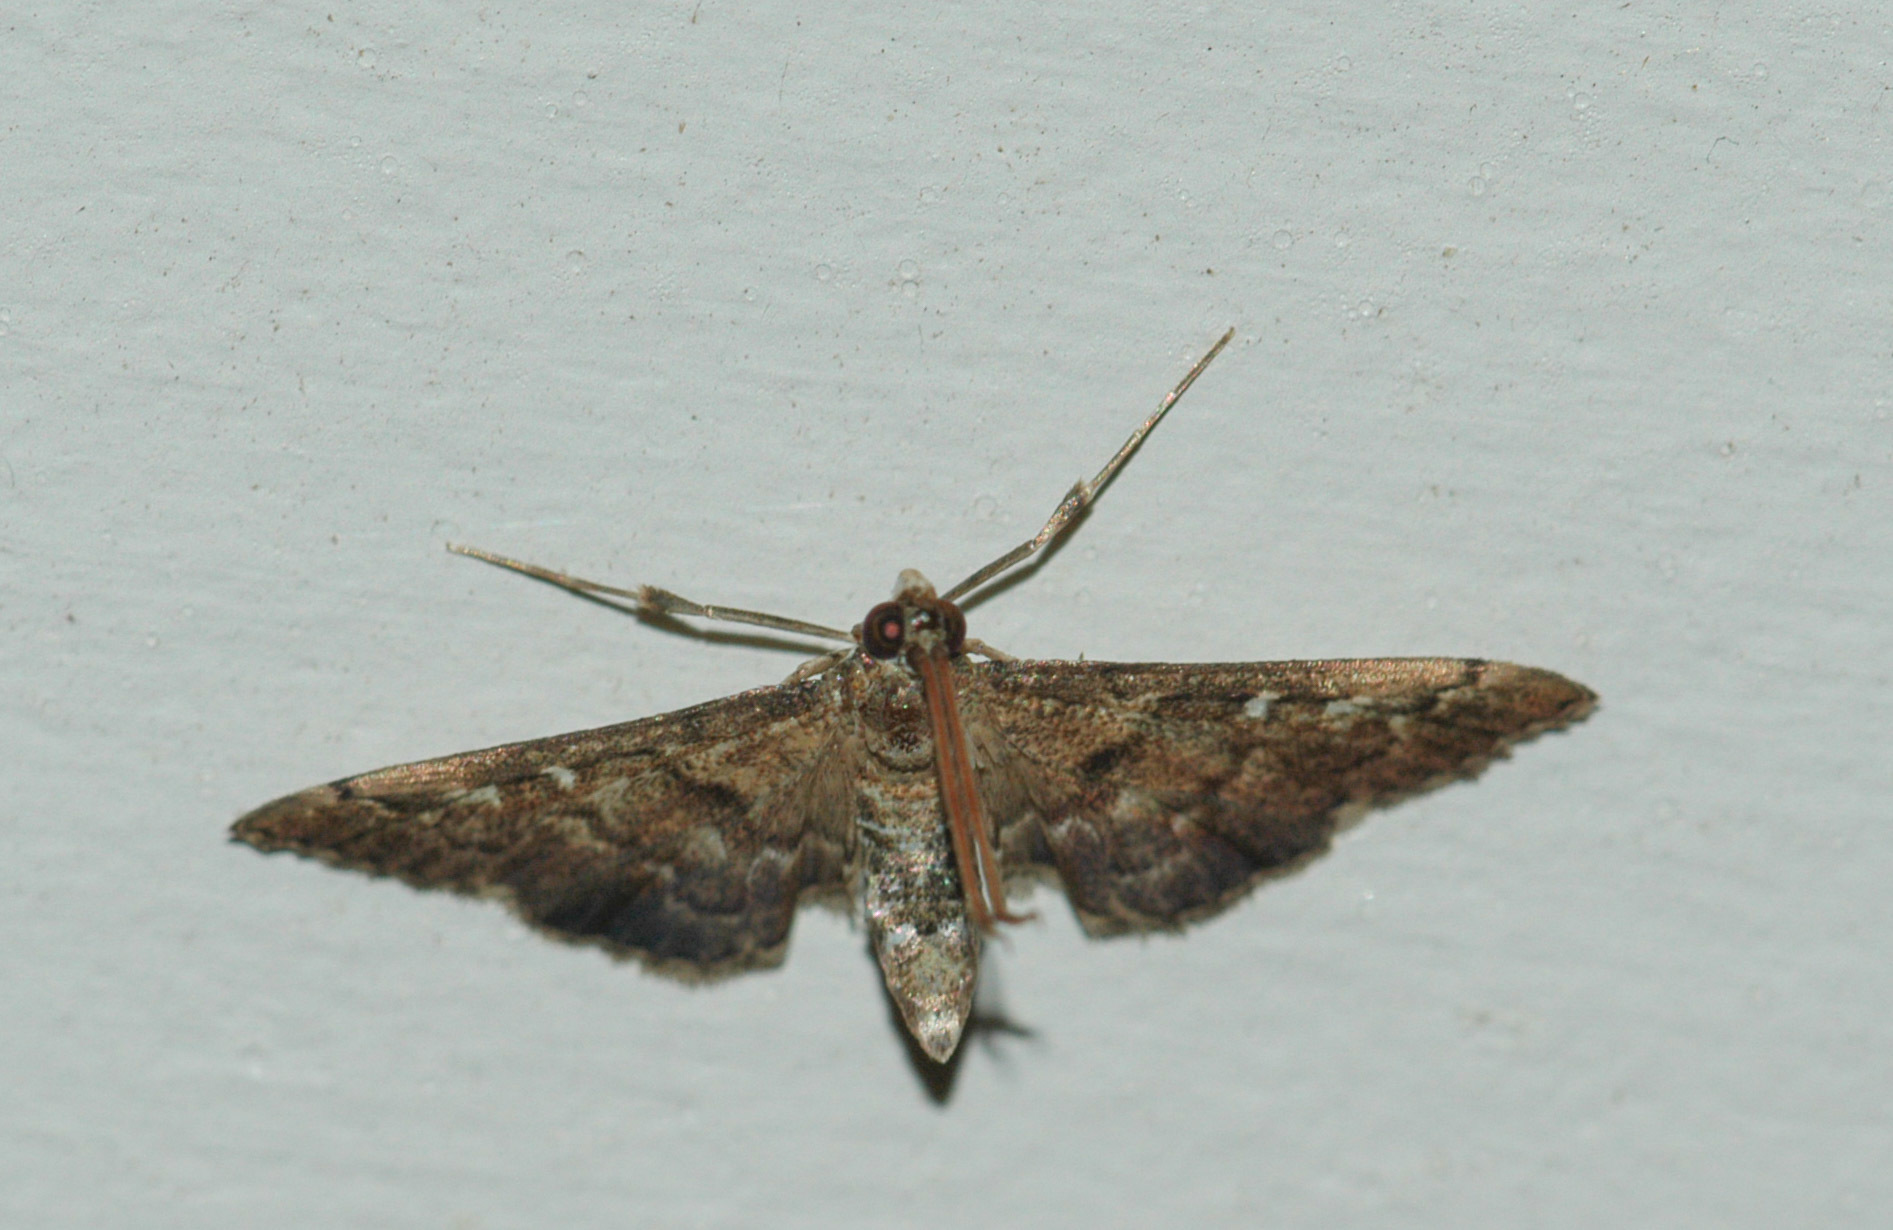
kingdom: Animalia
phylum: Arthropoda
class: Insecta
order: Lepidoptera
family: Crambidae
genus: Nacoleia
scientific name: Nacoleia rhoeoalis
